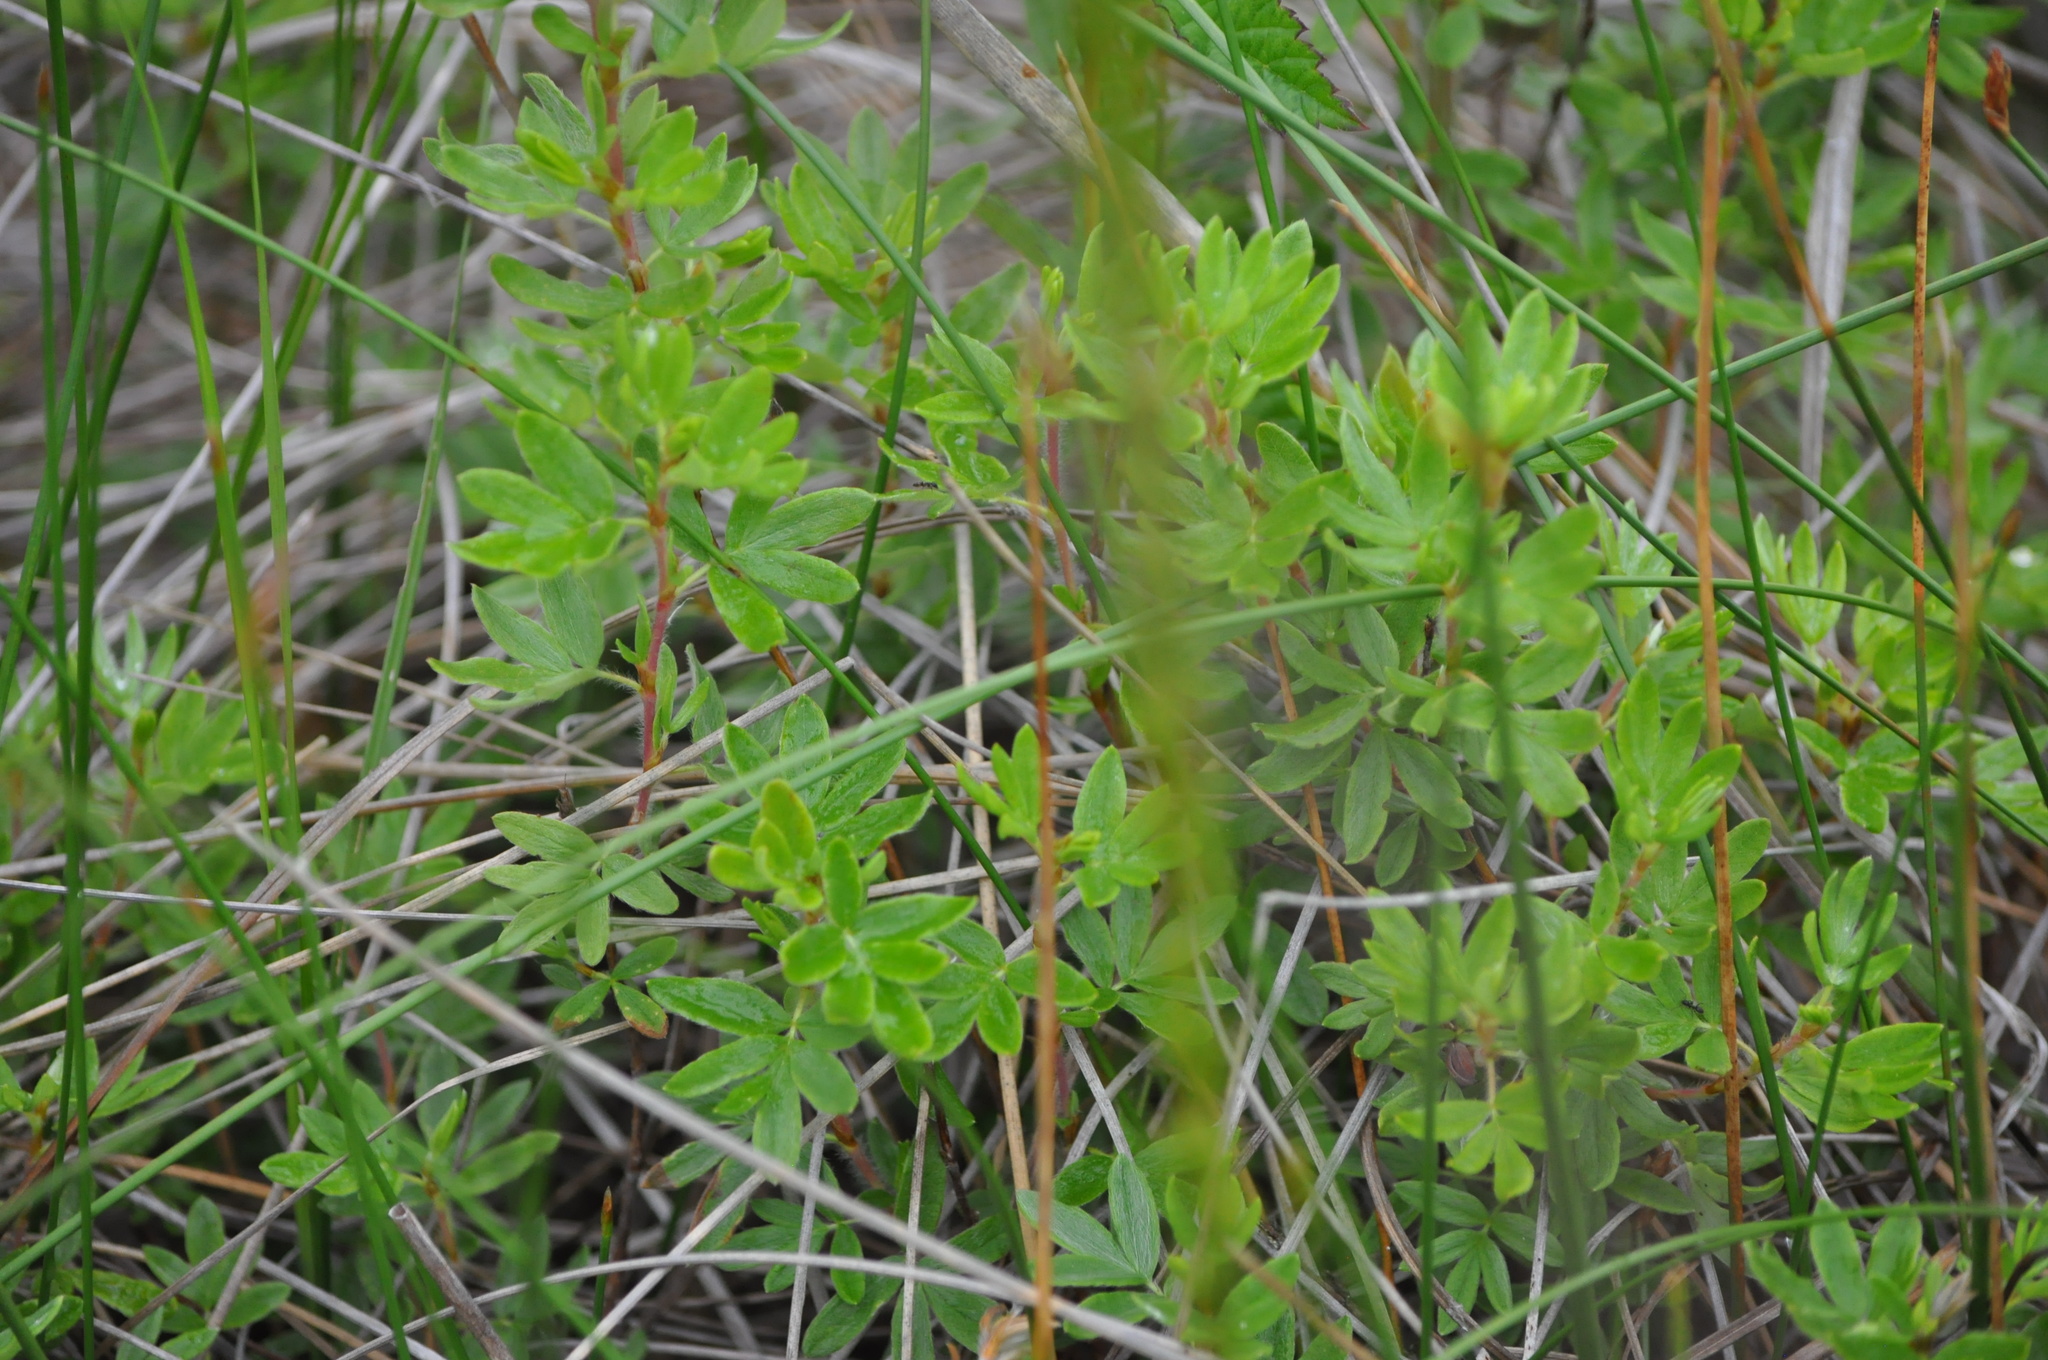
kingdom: Plantae
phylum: Tracheophyta
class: Magnoliopsida
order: Rosales
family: Rosaceae
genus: Dasiphora
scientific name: Dasiphora fruticosa
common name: Shrubby cinquefoil
